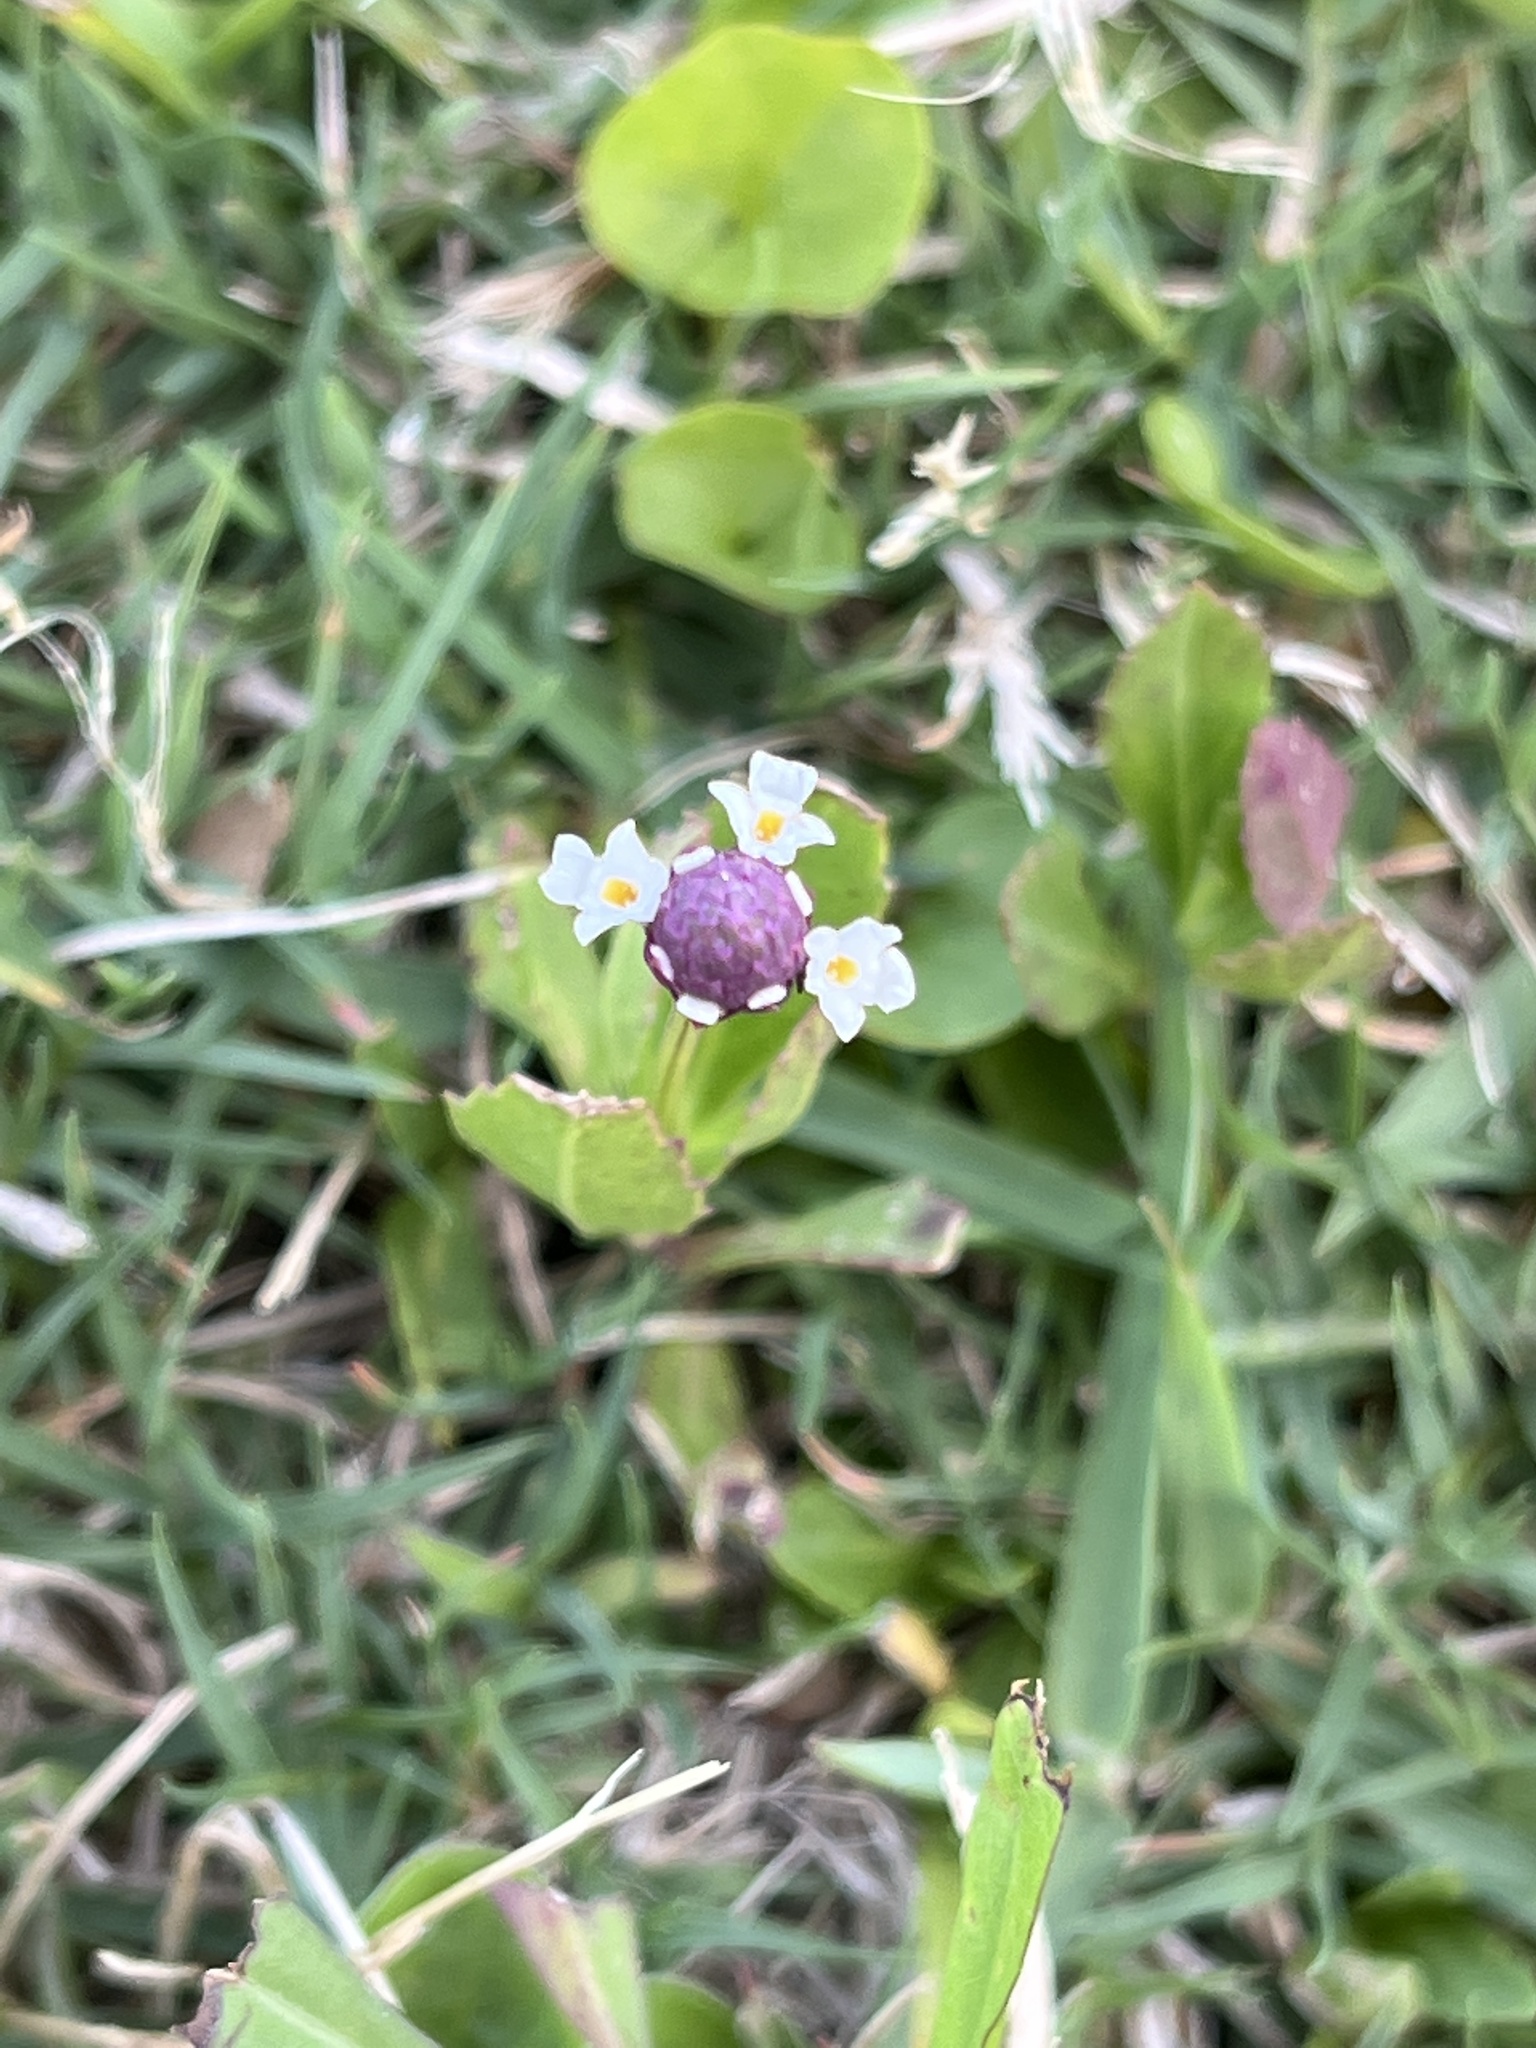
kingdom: Plantae
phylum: Tracheophyta
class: Magnoliopsida
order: Lamiales
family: Verbenaceae
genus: Phyla
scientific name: Phyla nodiflora
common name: Frogfruit
